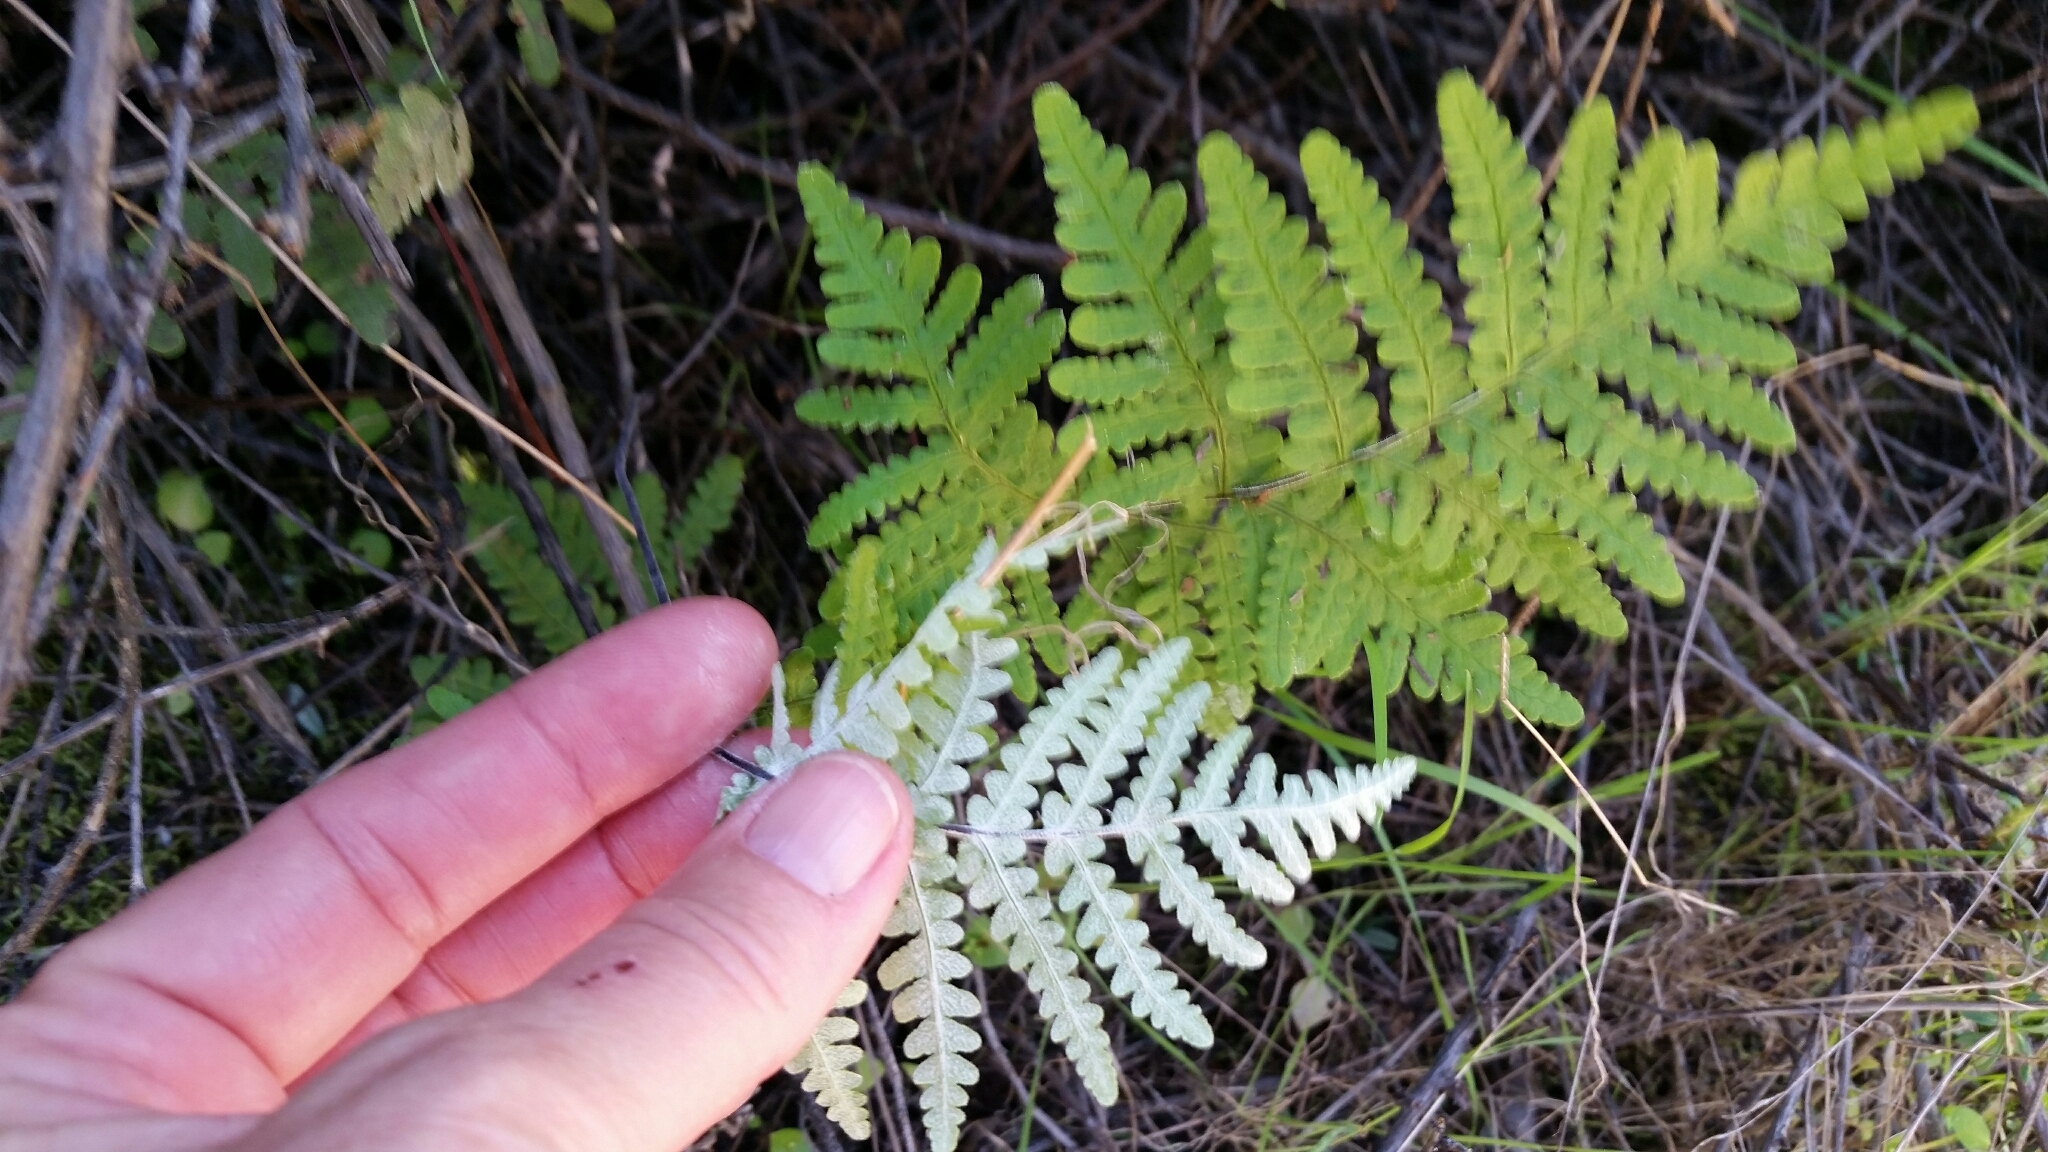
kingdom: Plantae
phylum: Tracheophyta
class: Polypodiopsida
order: Polypodiales
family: Pteridaceae
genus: Pentagramma
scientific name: Pentagramma triangularis
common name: Gold fern
